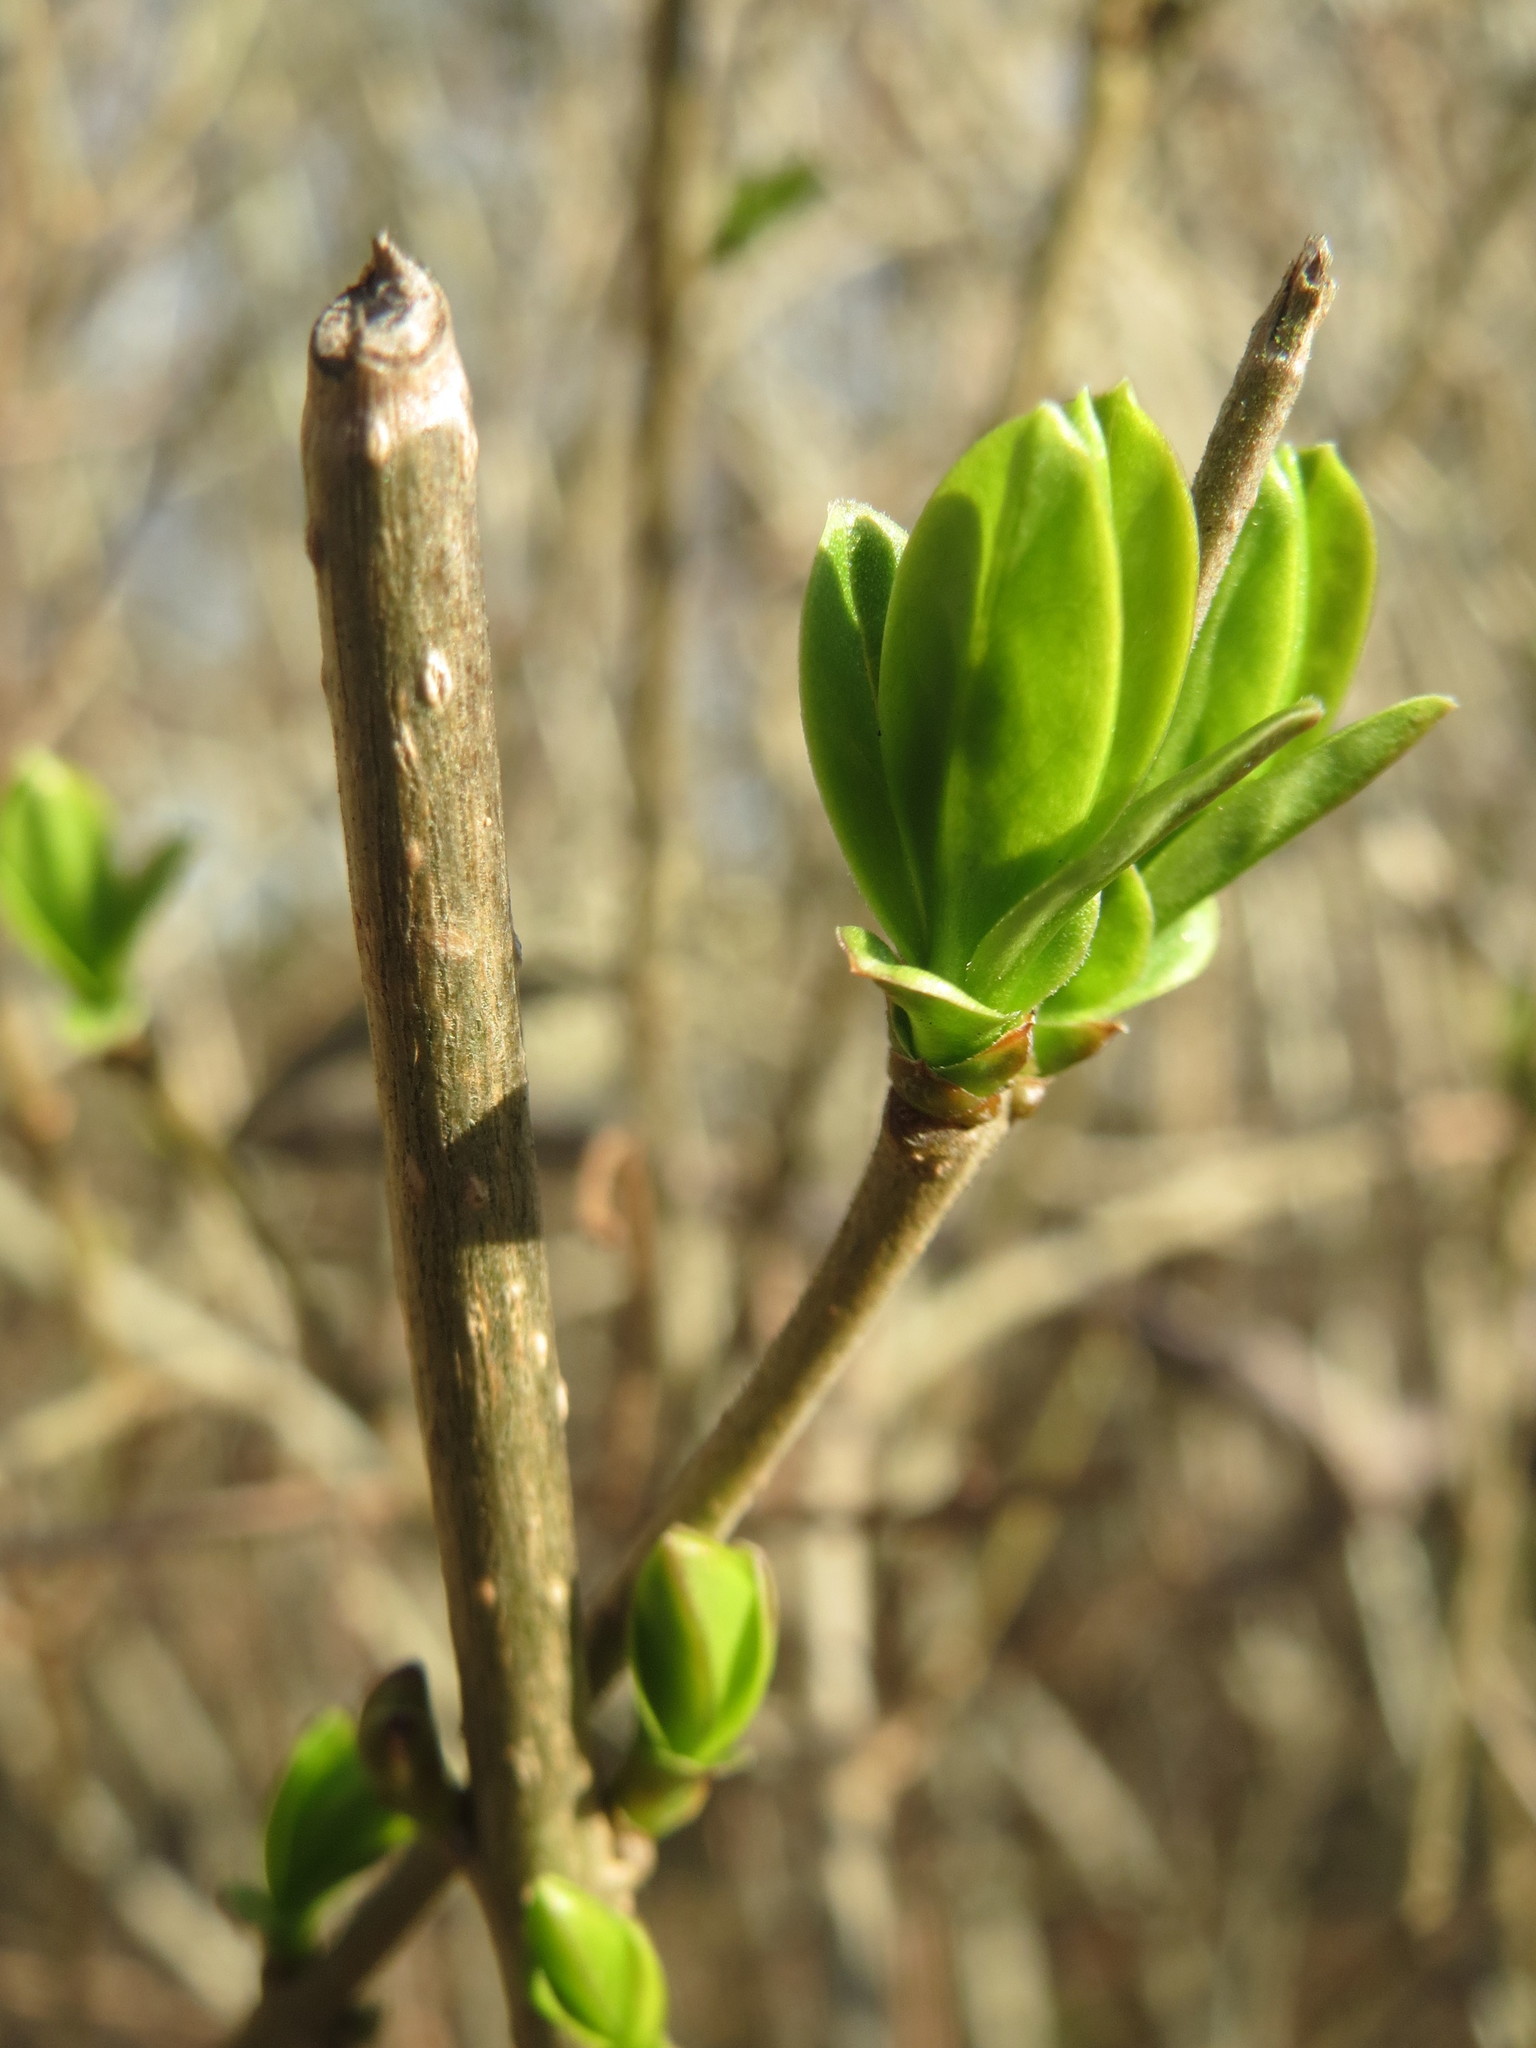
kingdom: Plantae
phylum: Tracheophyta
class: Magnoliopsida
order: Lamiales
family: Oleaceae
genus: Ligustrum
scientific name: Ligustrum vulgare
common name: Wild privet
